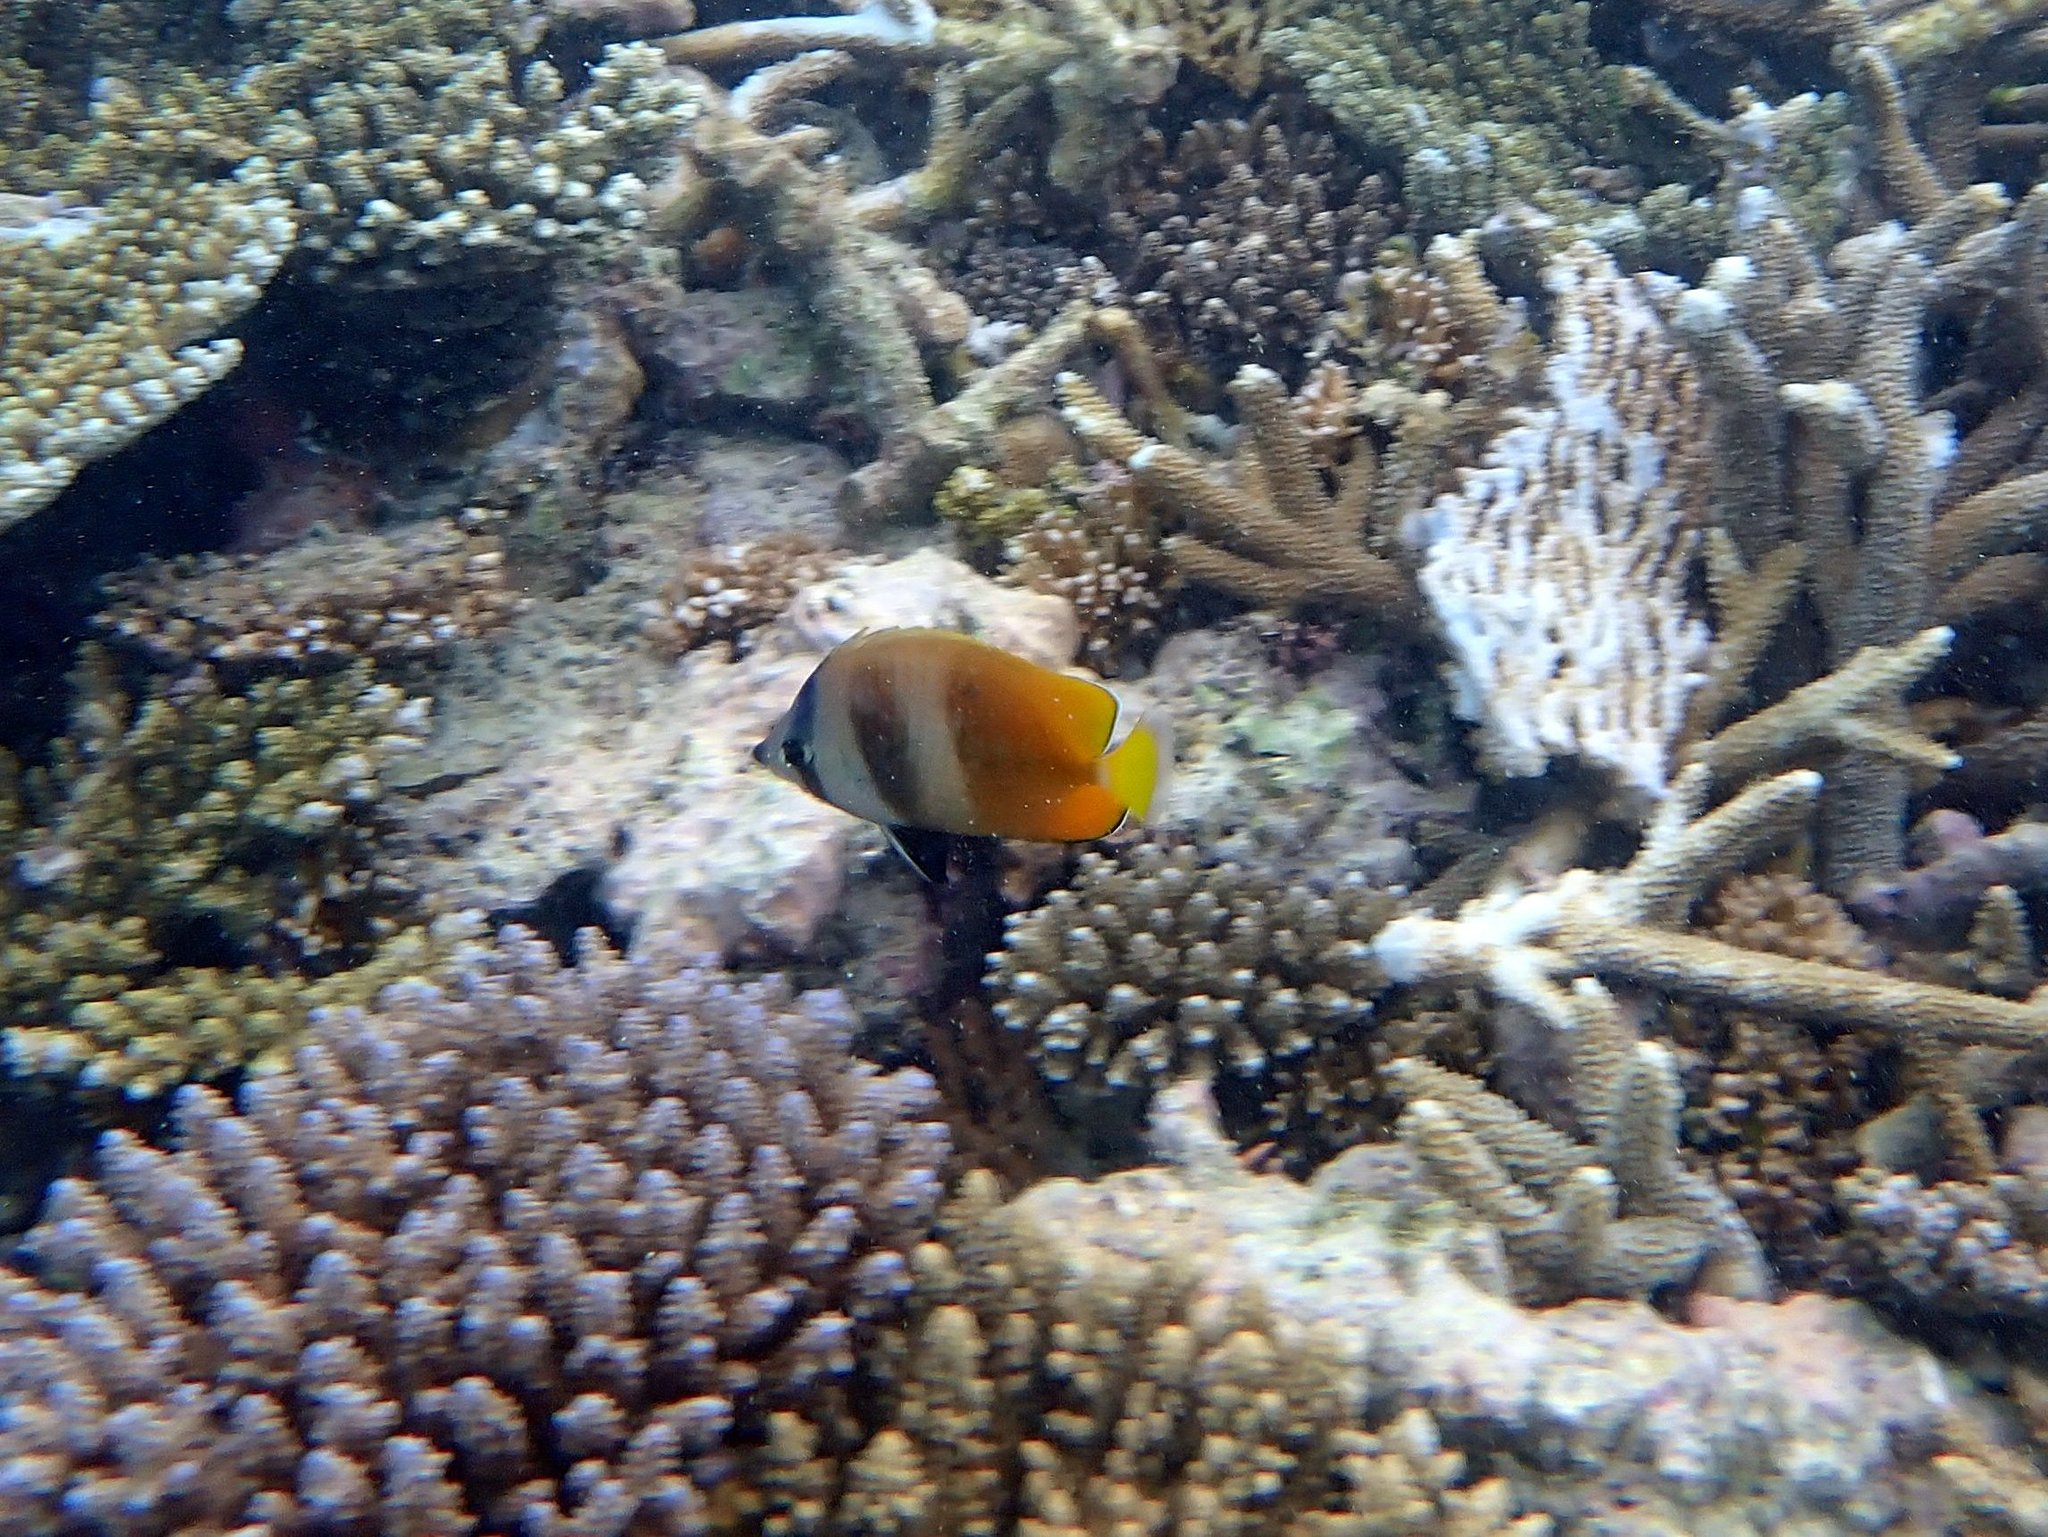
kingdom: Animalia
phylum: Chordata
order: Perciformes
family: Chaetodontidae
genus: Chaetodon
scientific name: Chaetodon kleinii
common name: Klein's butterflyfish
